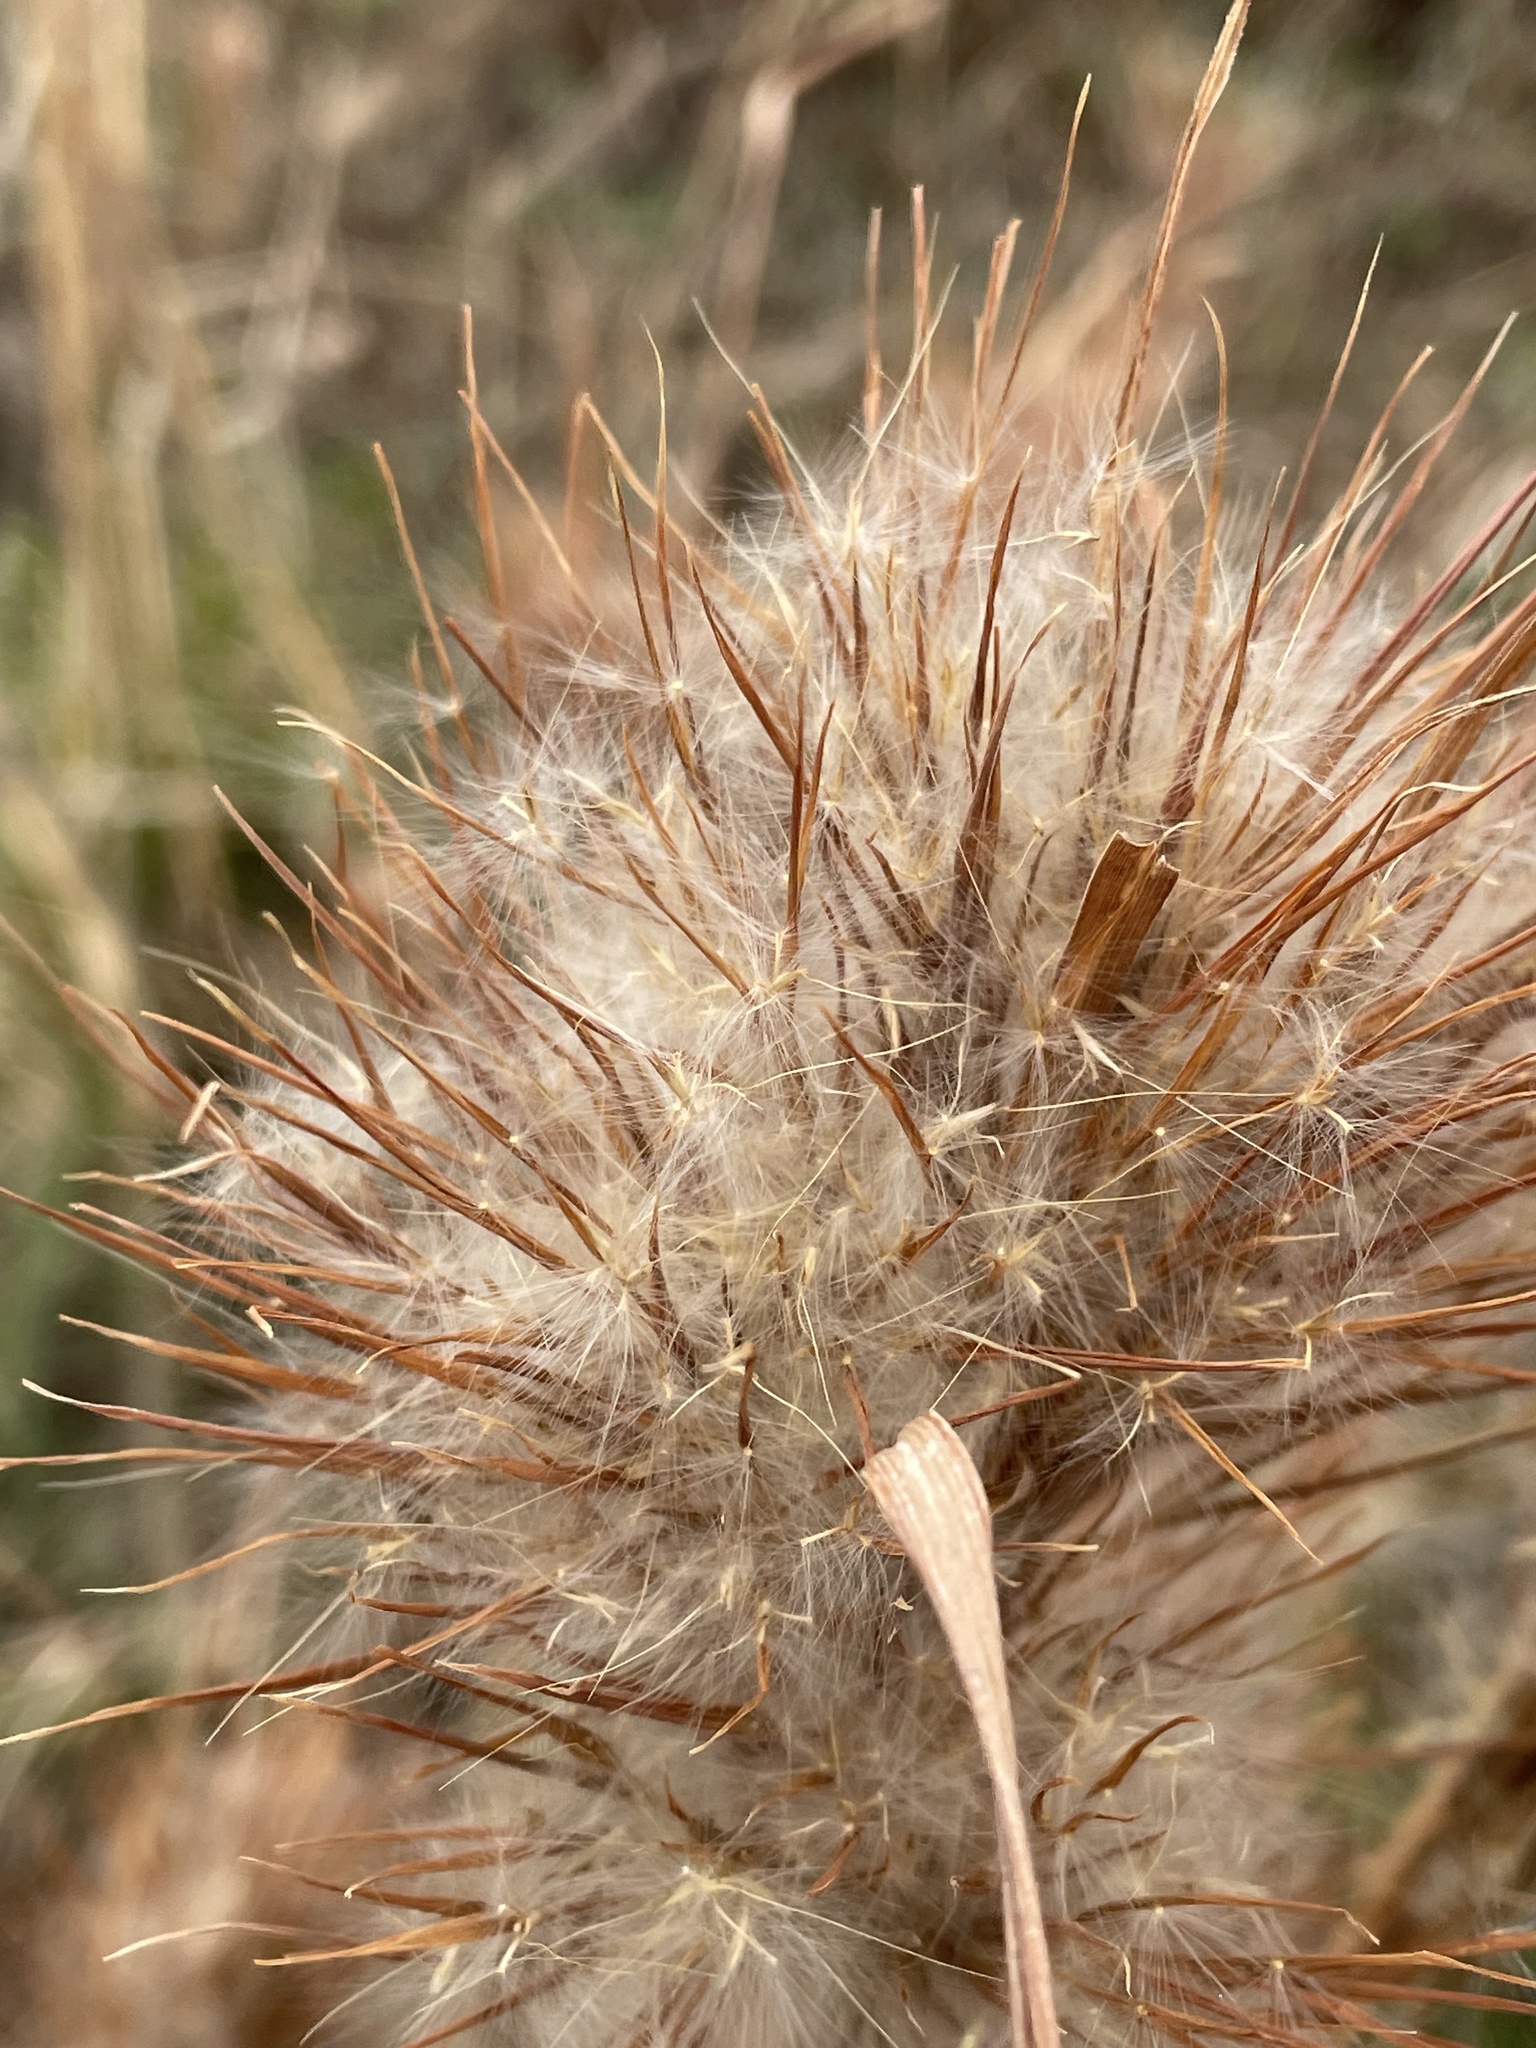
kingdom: Plantae
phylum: Tracheophyta
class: Liliopsida
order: Poales
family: Poaceae
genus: Andropogon
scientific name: Andropogon tenuispatheus
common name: Bushy bluestem
